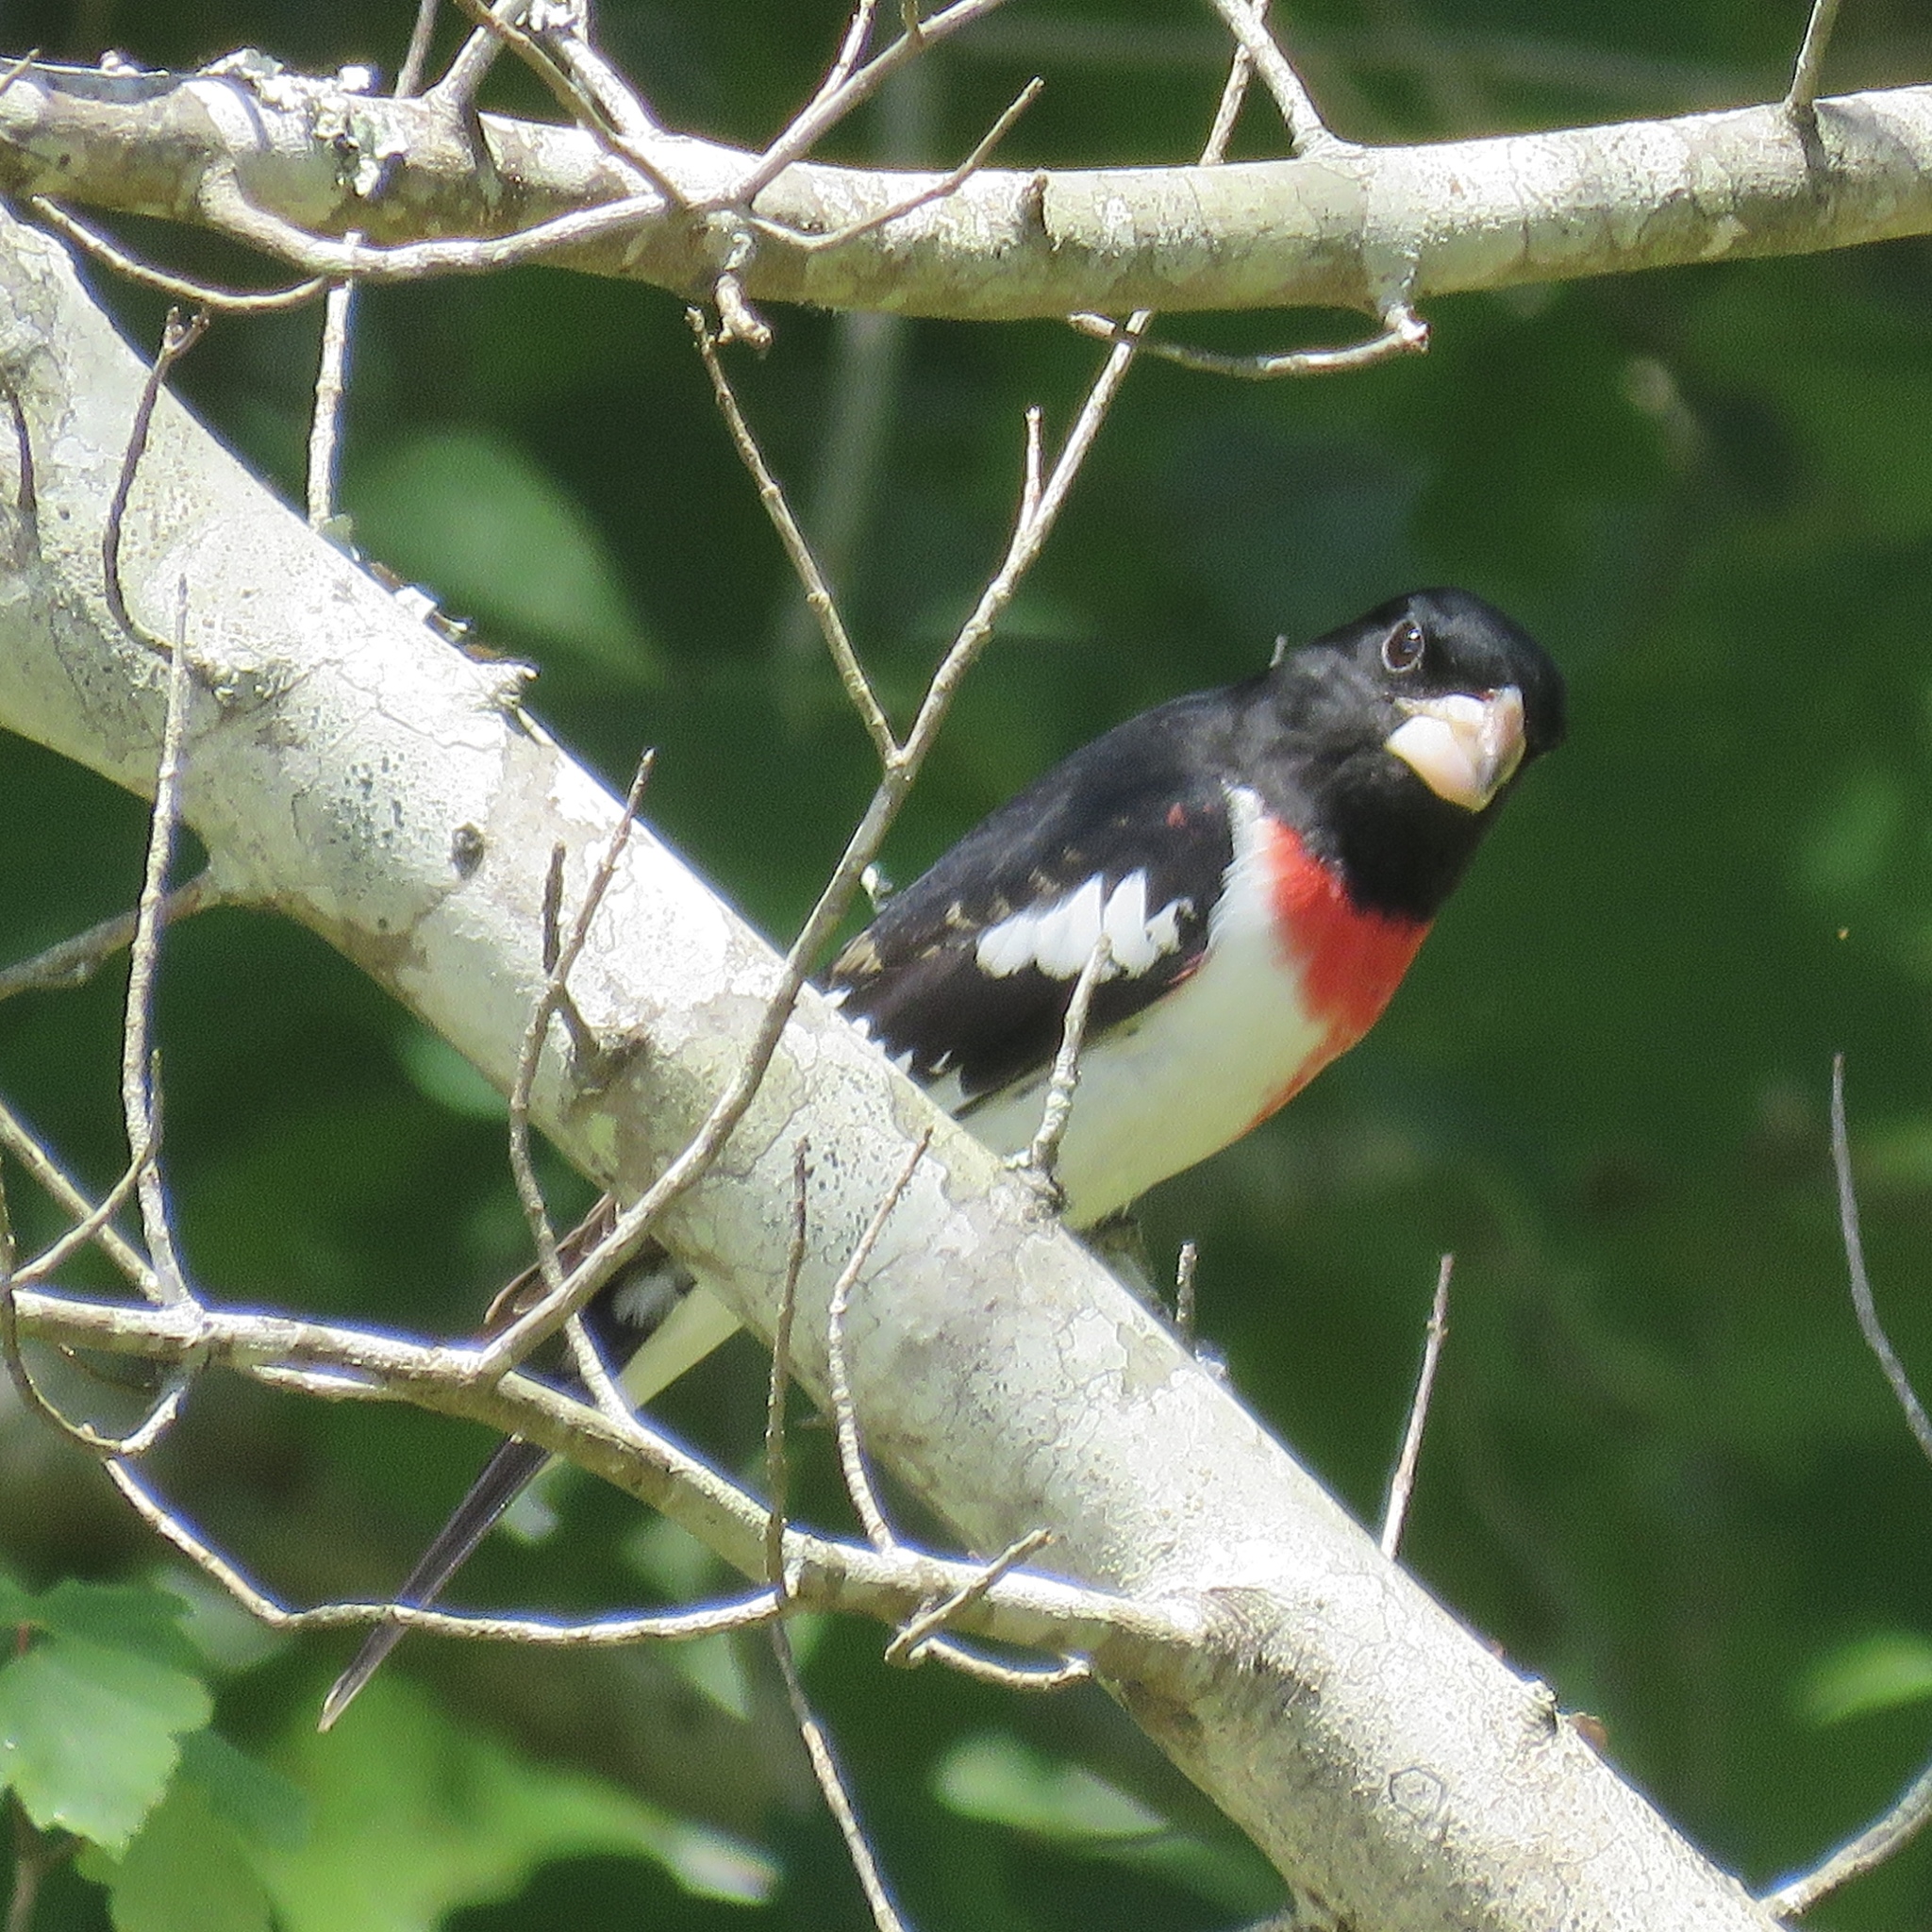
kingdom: Animalia
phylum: Chordata
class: Aves
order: Passeriformes
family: Cardinalidae
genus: Pheucticus
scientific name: Pheucticus ludovicianus
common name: Rose-breasted grosbeak
